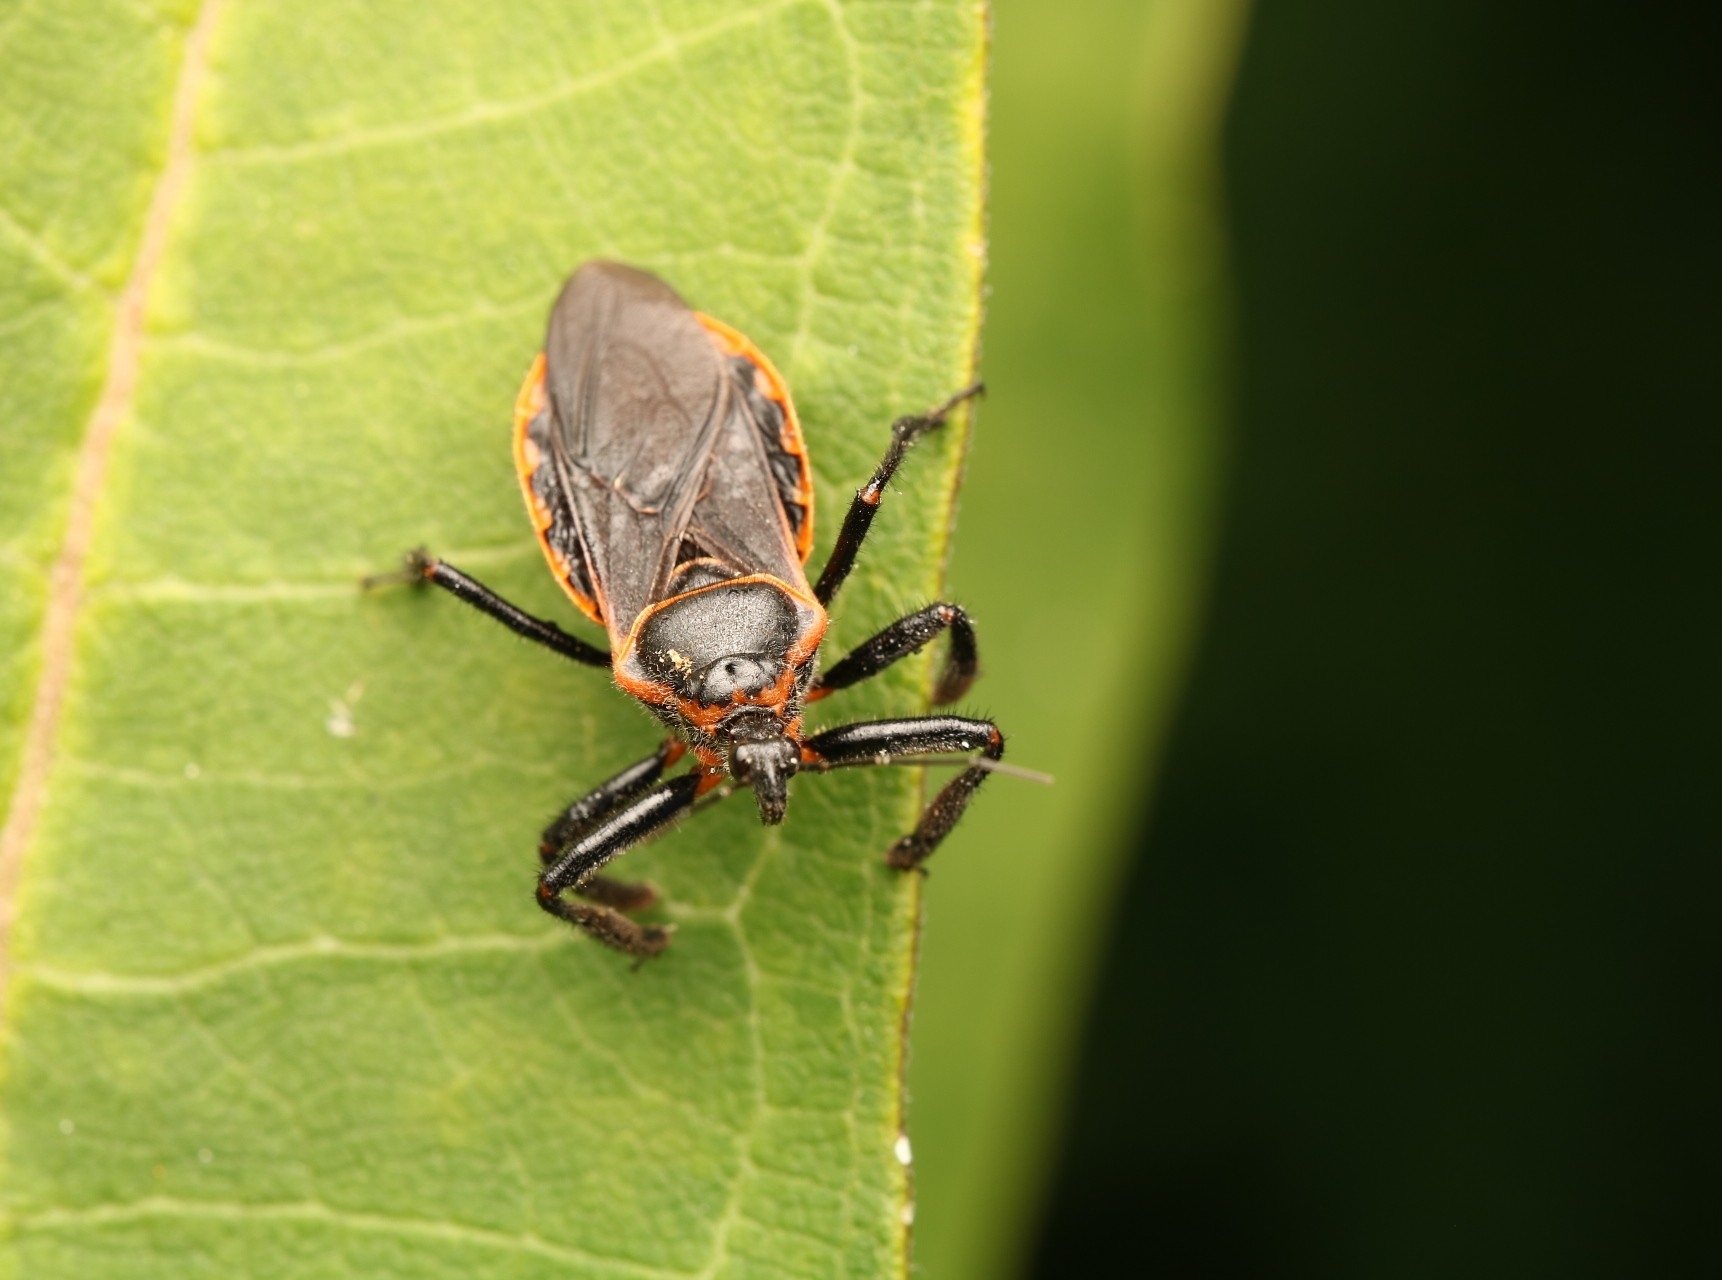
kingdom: Animalia
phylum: Arthropoda
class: Insecta
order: Hemiptera
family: Reduviidae
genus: Apiomerus
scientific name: Apiomerus crassipes
